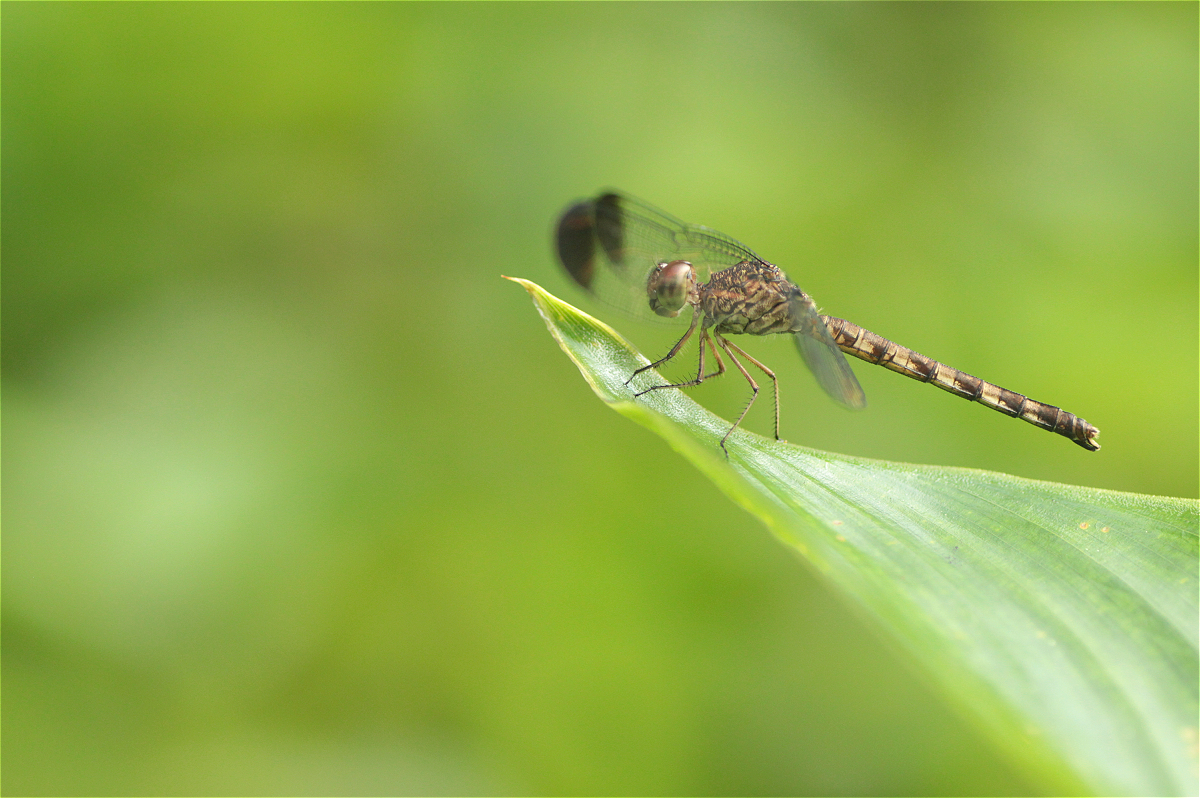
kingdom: Animalia
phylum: Arthropoda
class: Insecta
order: Odonata
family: Libellulidae
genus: Uracis
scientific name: Uracis imbuta
